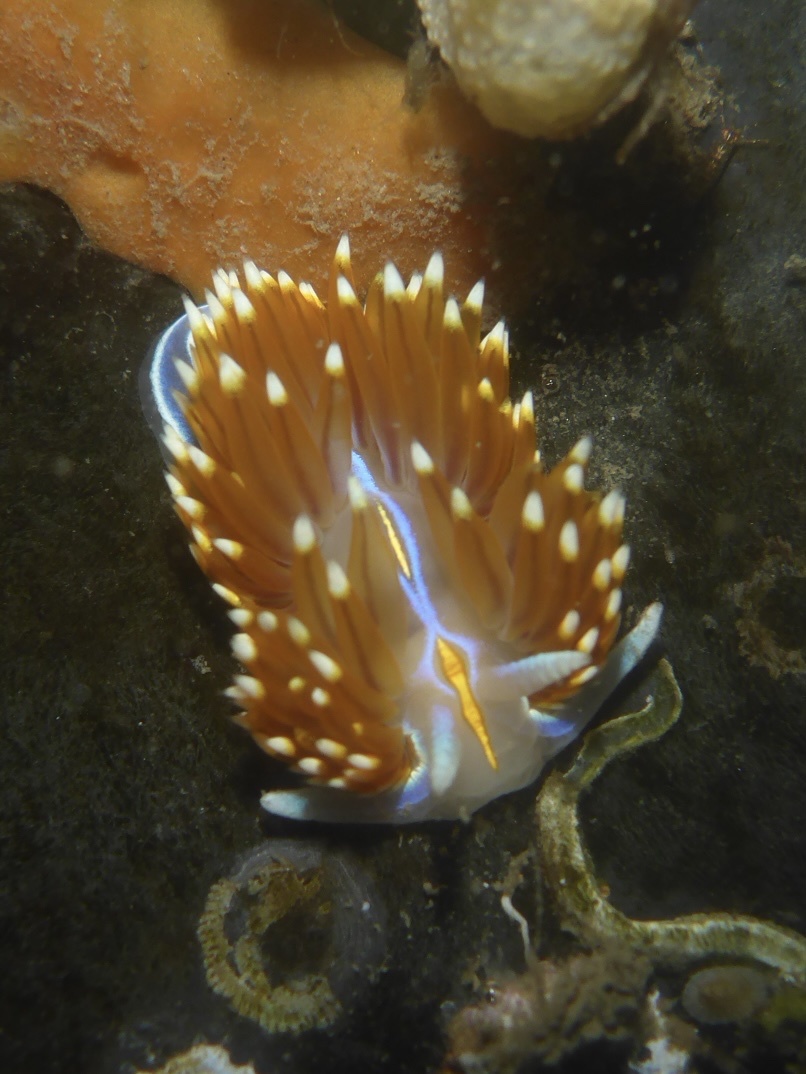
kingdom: Animalia
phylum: Mollusca
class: Gastropoda
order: Nudibranchia
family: Myrrhinidae
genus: Hermissenda
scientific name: Hermissenda opalescens
